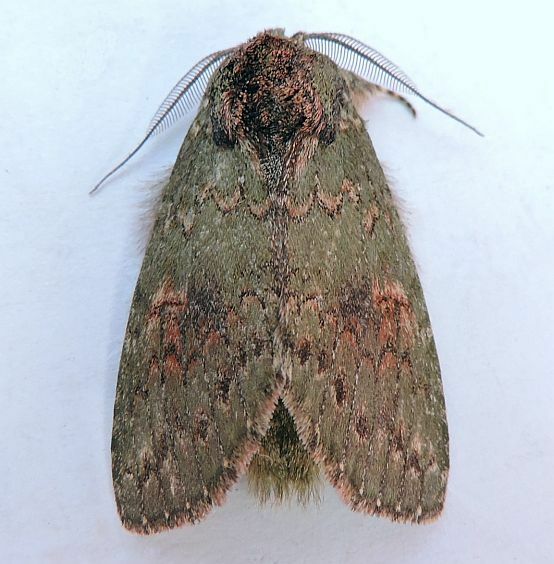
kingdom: Animalia
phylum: Arthropoda
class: Insecta
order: Lepidoptera
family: Notodontidae
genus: Disphragis
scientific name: Disphragis Cecrita biundata
